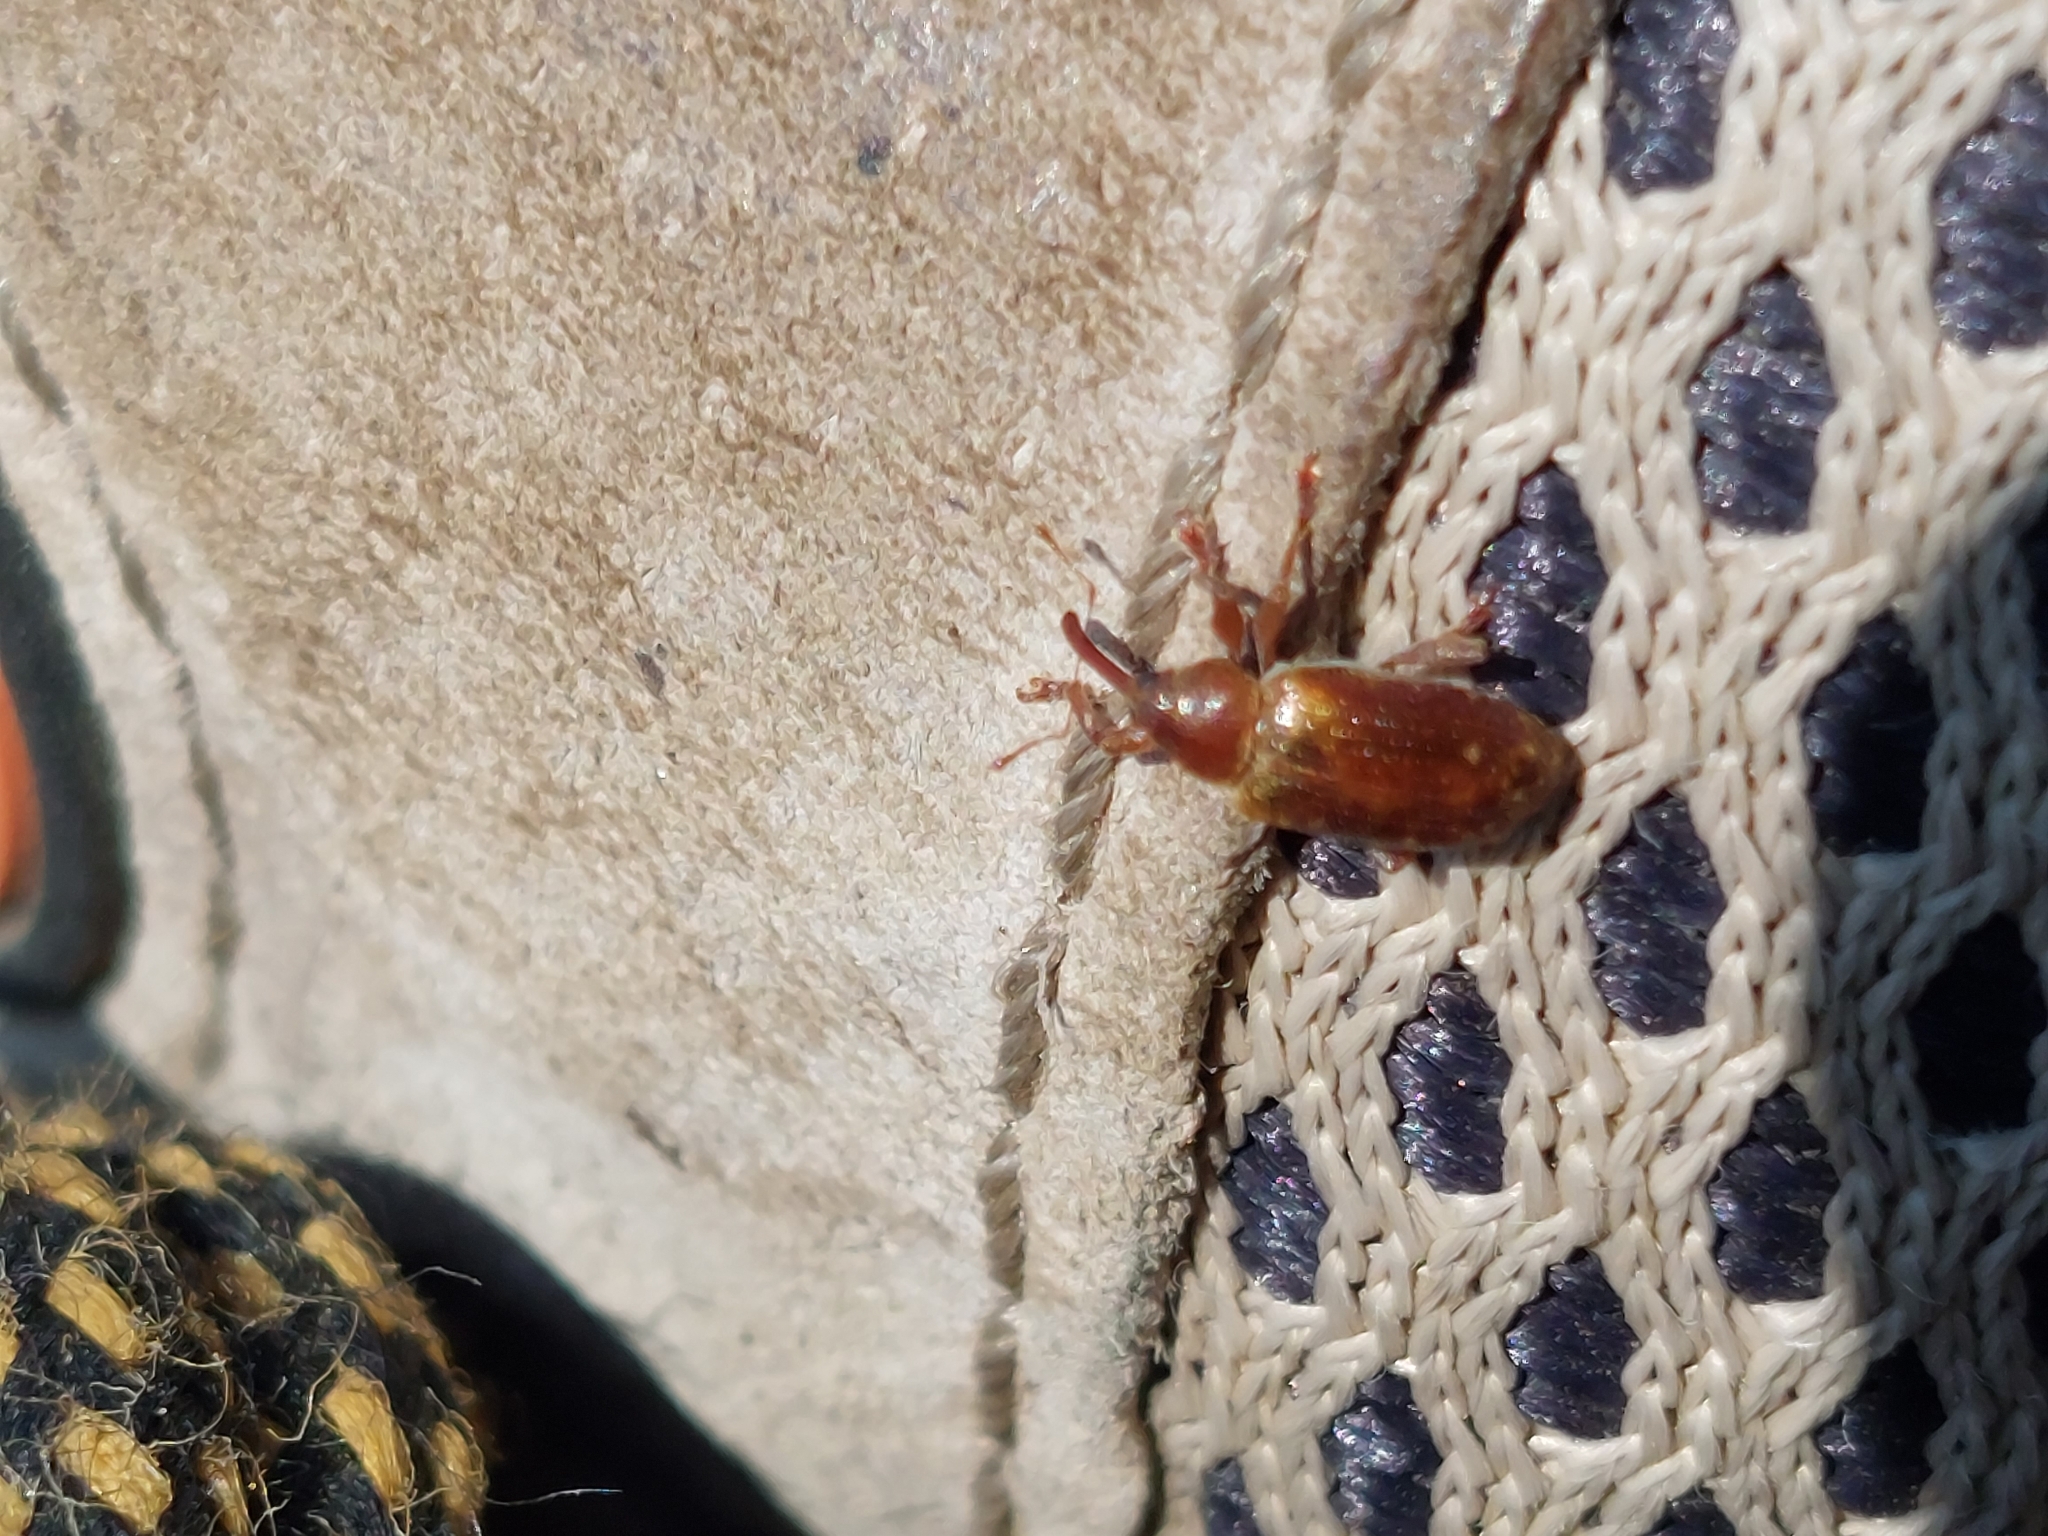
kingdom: Animalia
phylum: Arthropoda
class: Insecta
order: Coleoptera
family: Curculionidae
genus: Dorytomus
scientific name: Dorytomus tortrix
